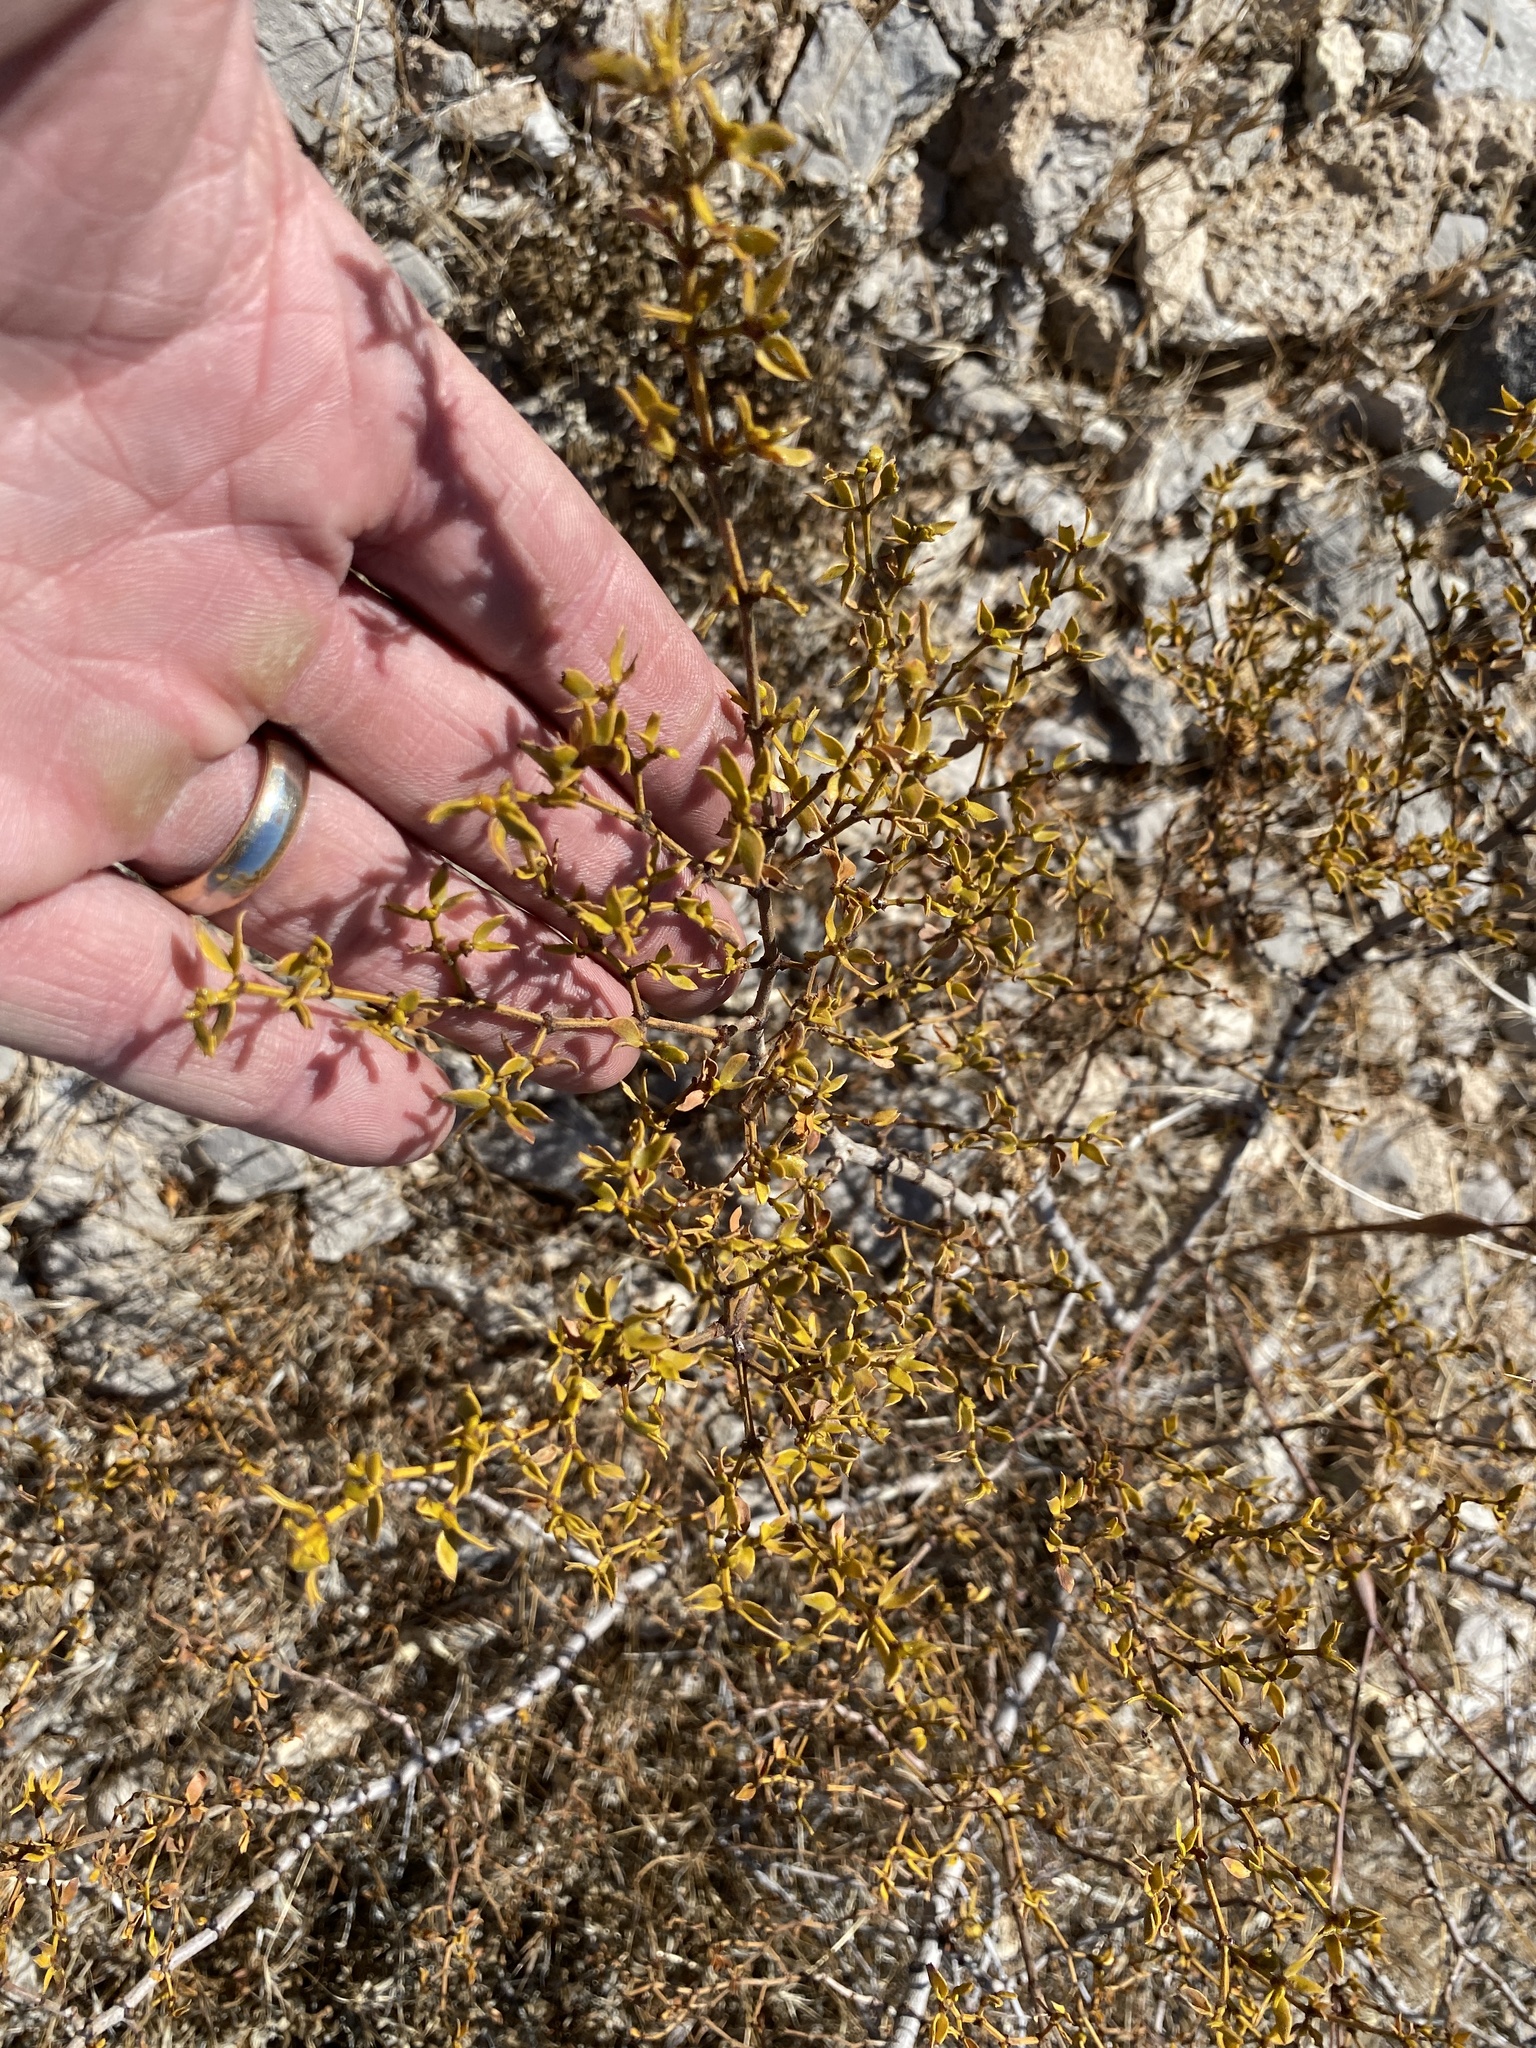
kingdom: Plantae
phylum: Tracheophyta
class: Magnoliopsida
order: Zygophyllales
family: Zygophyllaceae
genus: Larrea
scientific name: Larrea tridentata
